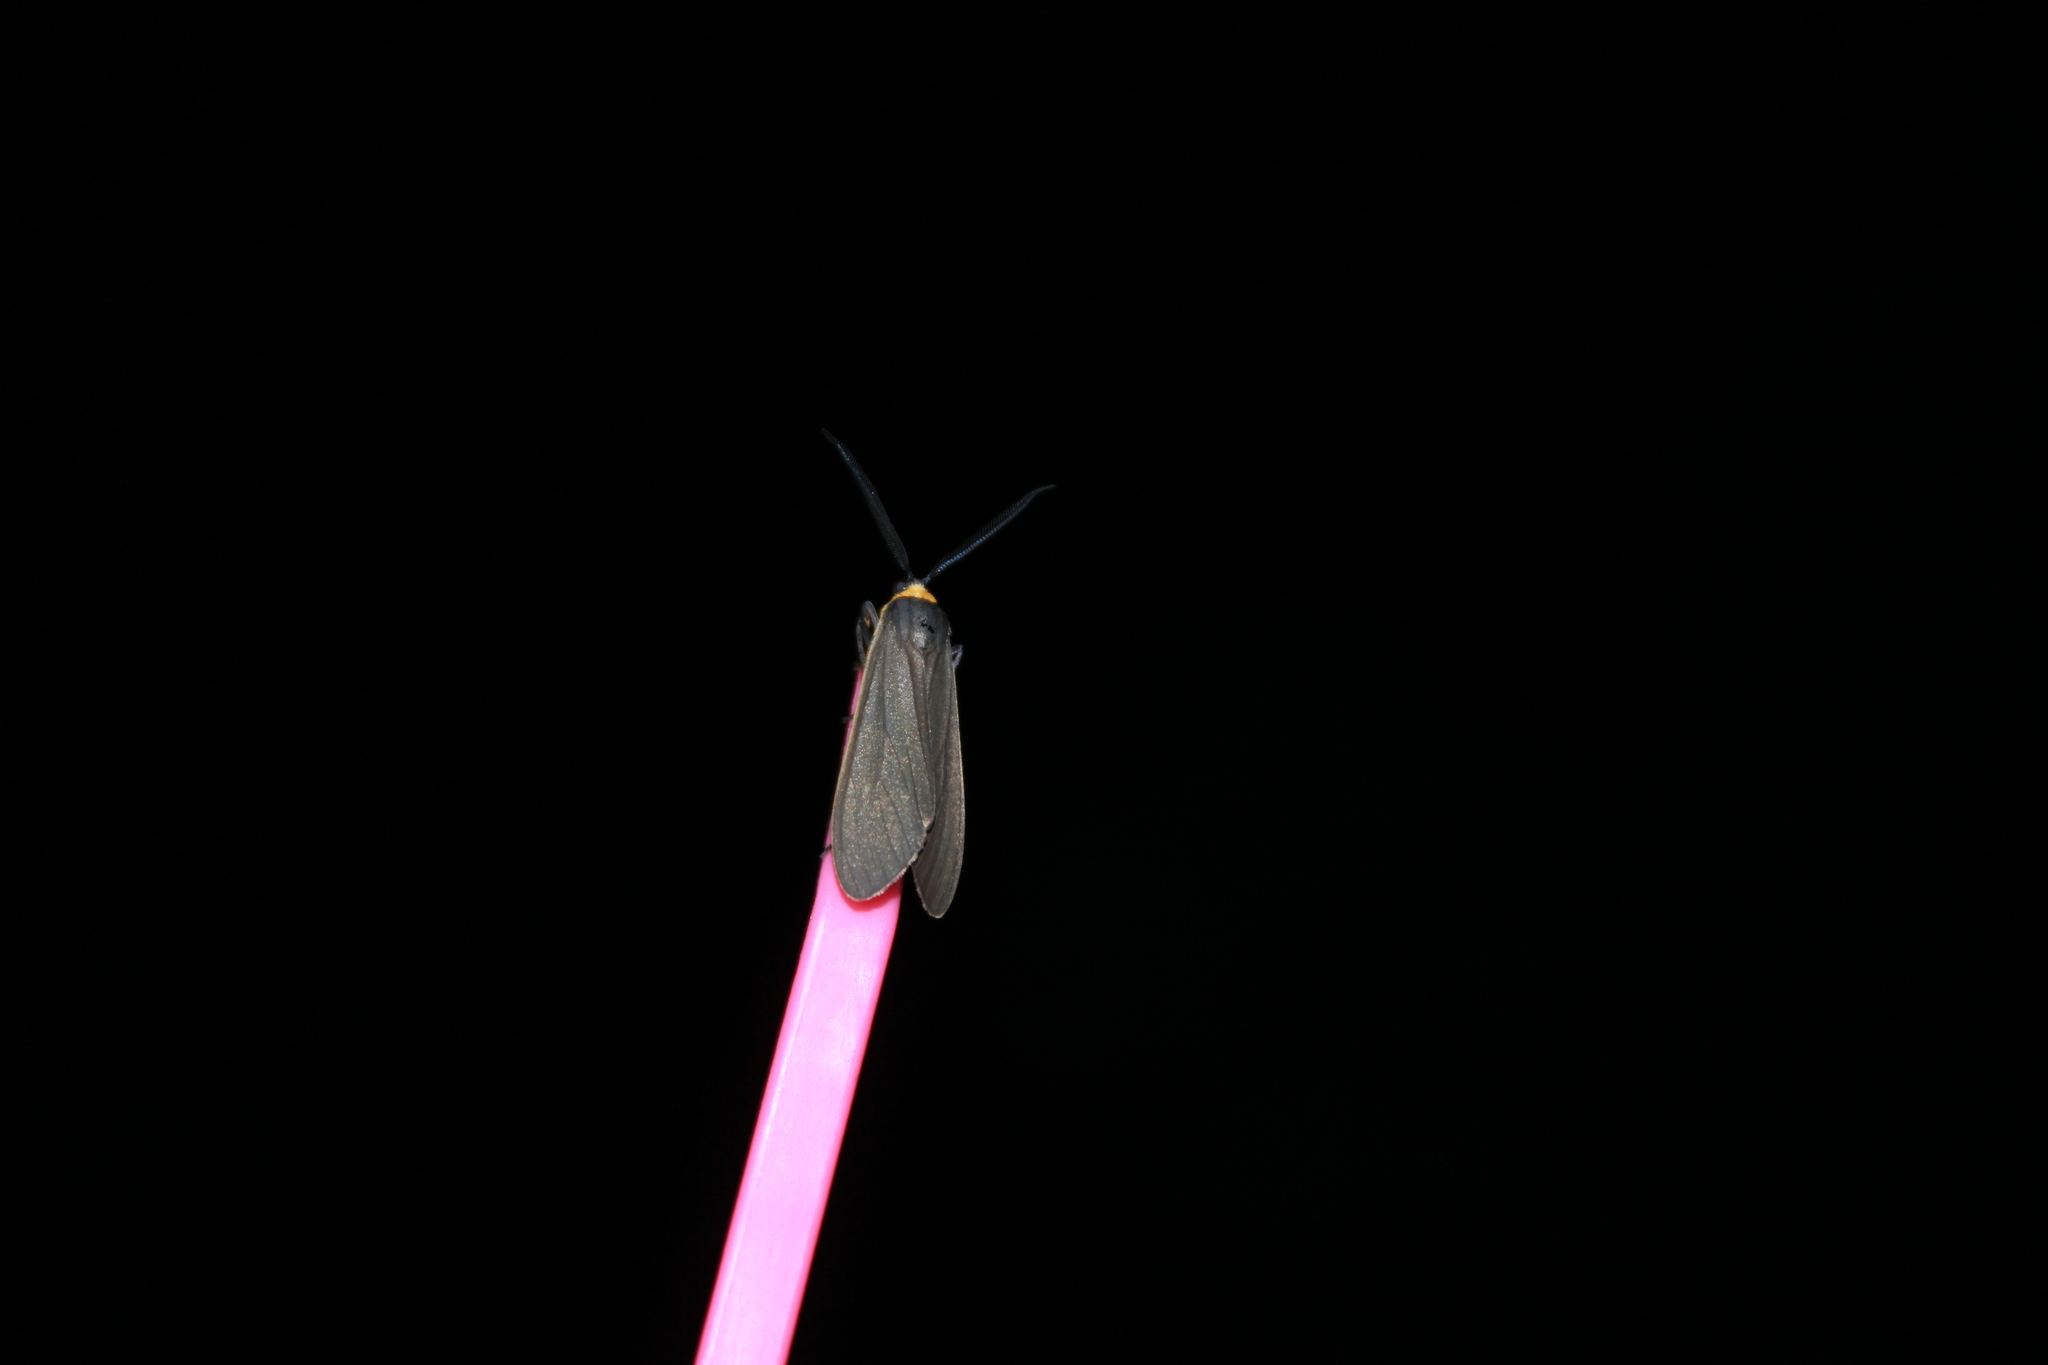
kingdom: Animalia
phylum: Arthropoda
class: Insecta
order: Lepidoptera
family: Erebidae
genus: Cisseps
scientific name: Cisseps fulvicollis
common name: Yellow-collared scape moth
